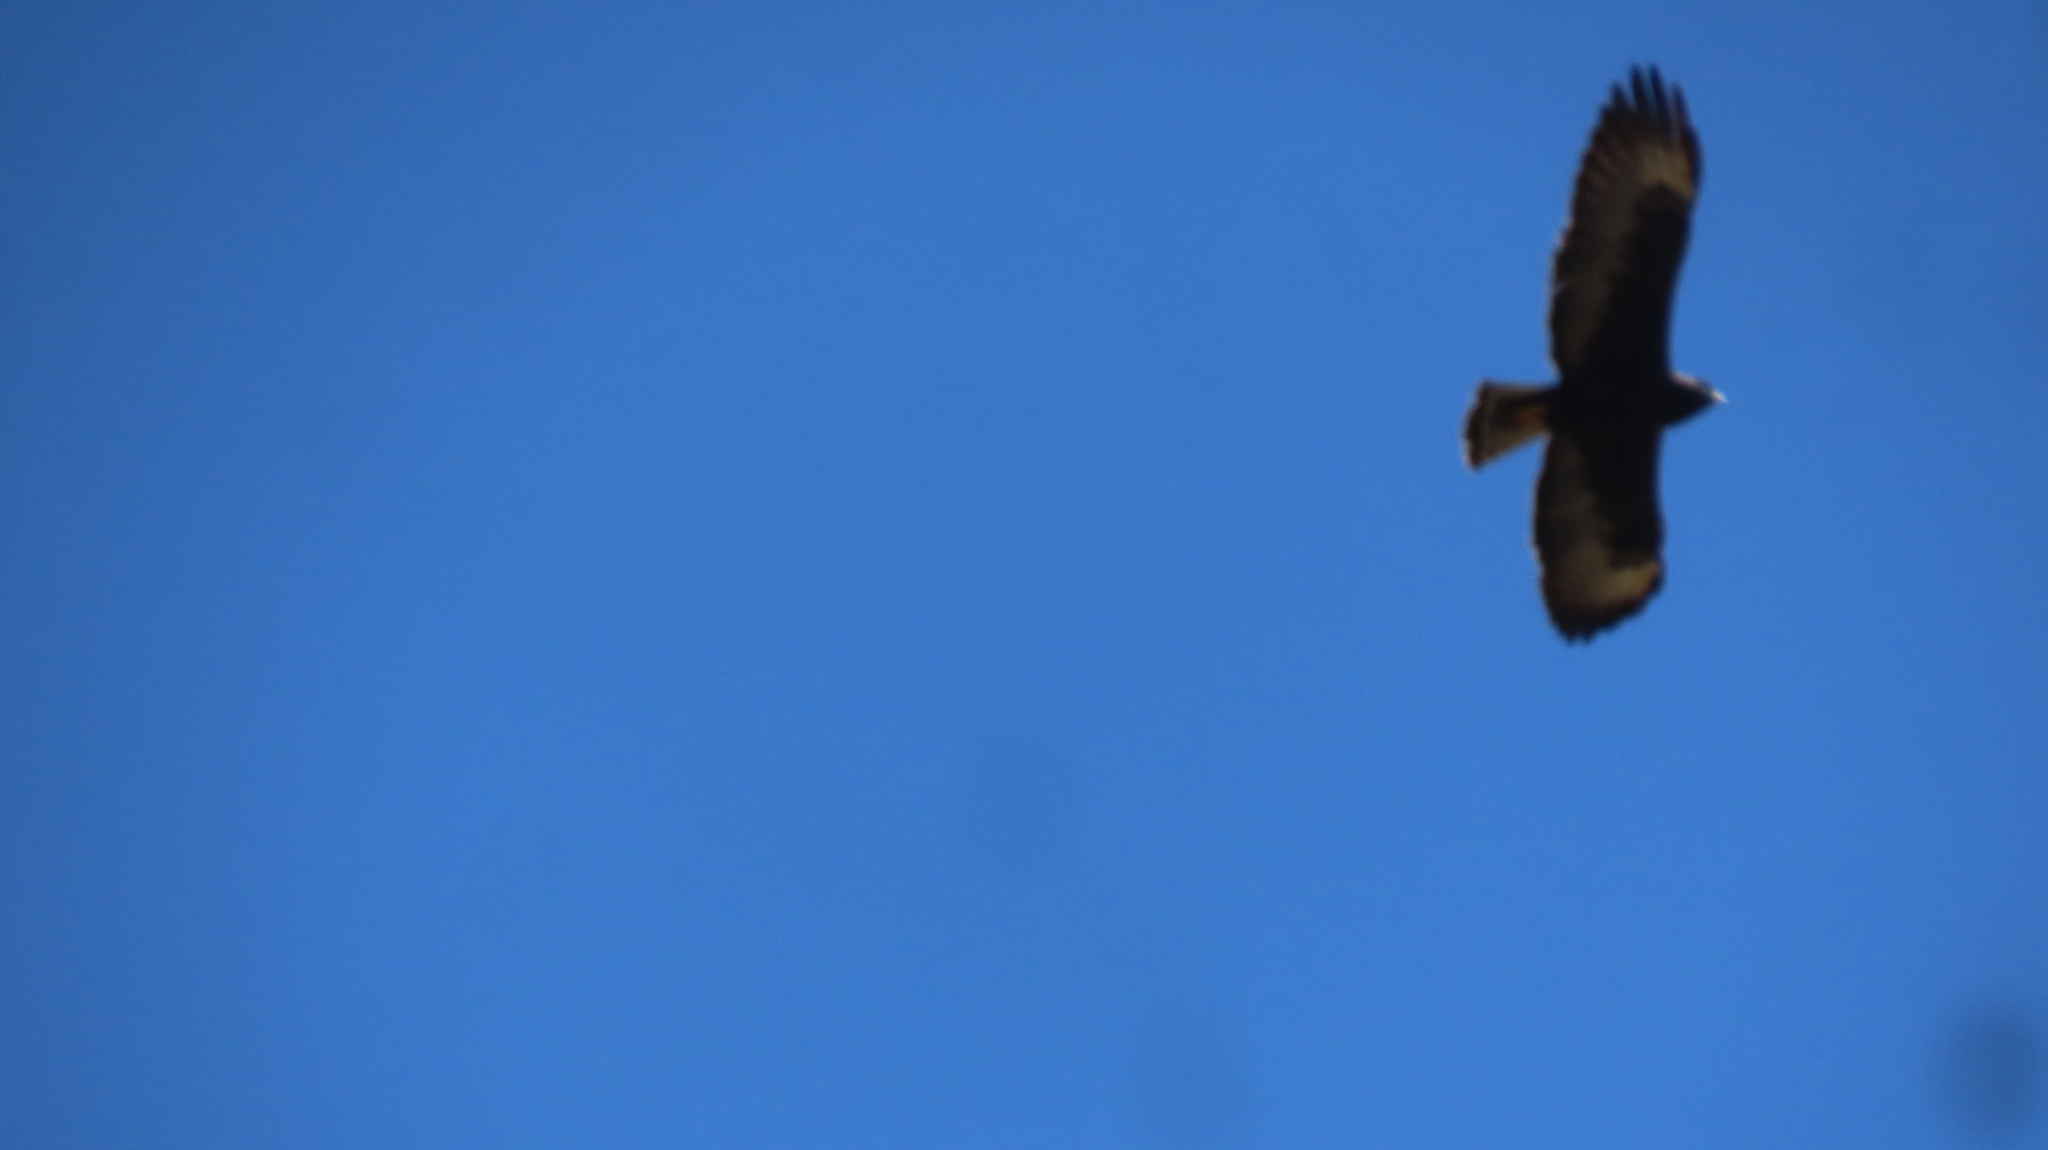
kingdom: Animalia
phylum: Chordata
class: Aves
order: Accipitriformes
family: Accipitridae
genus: Buteogallus
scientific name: Buteogallus anthracinus
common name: Common black hawk
